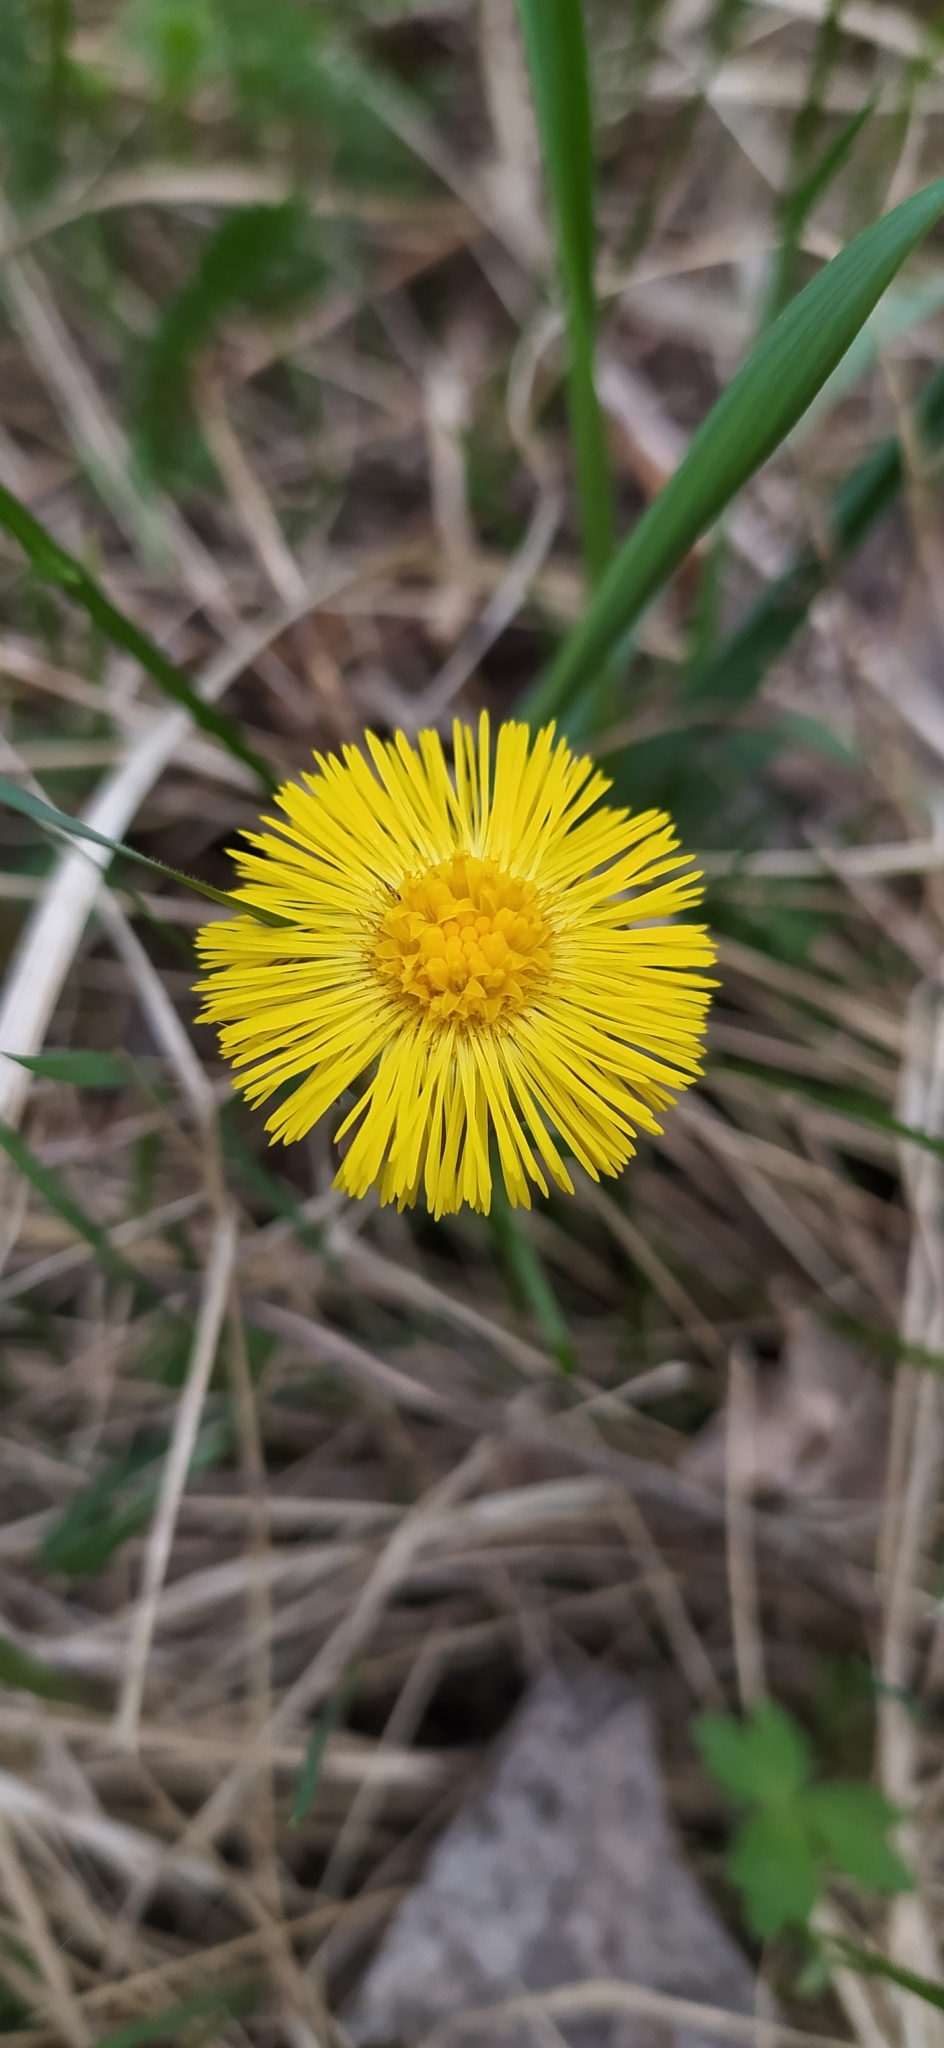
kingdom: Plantae
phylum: Tracheophyta
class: Magnoliopsida
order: Asterales
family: Asteraceae
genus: Tussilago
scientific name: Tussilago farfara
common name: Coltsfoot
